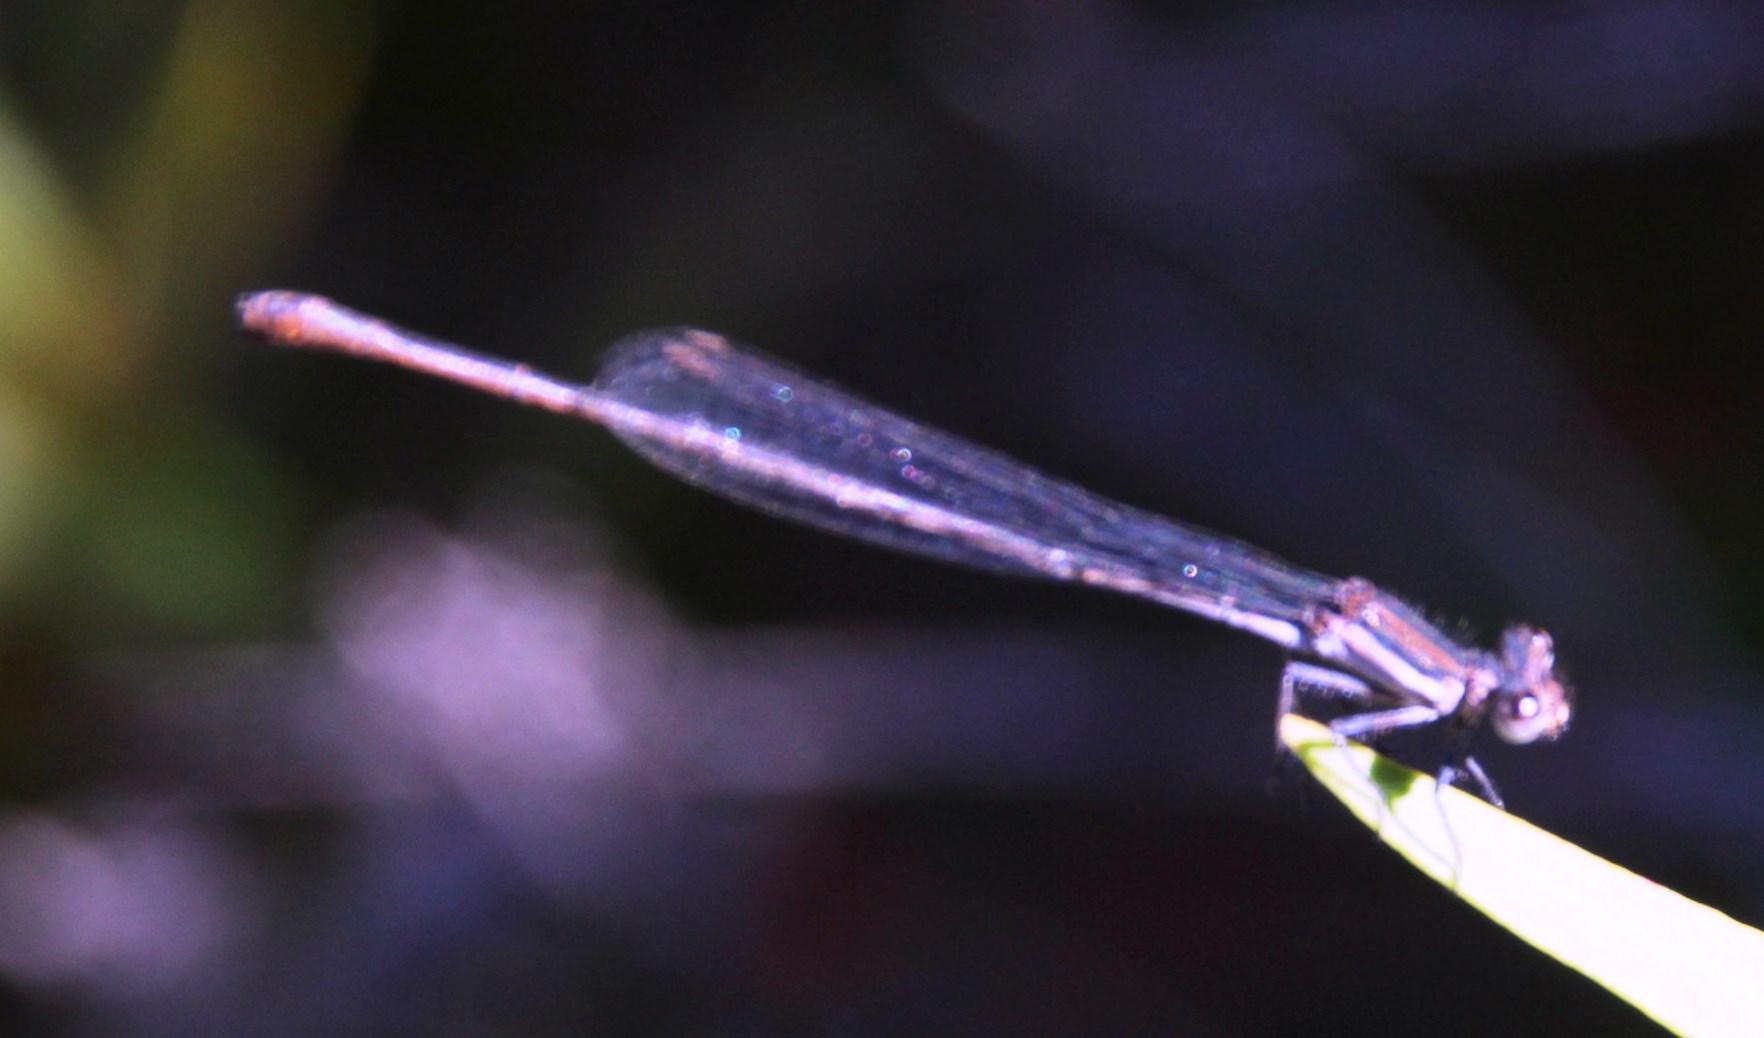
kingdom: Animalia
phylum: Arthropoda
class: Insecta
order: Odonata
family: Platycnemididae
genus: Elattoneura
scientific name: Elattoneura frenulata
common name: Sooty threadtail
